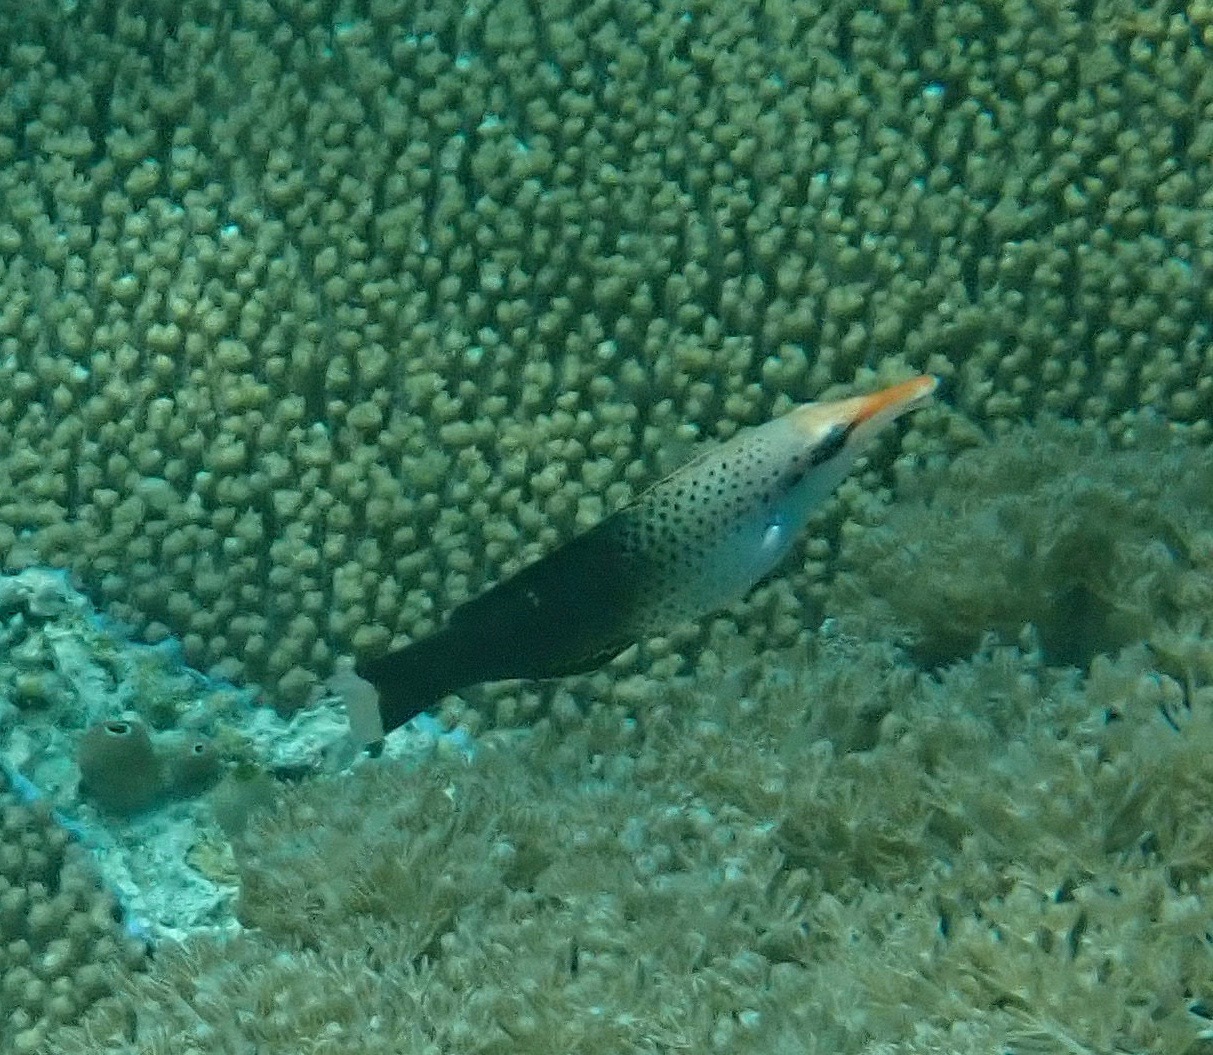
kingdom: Animalia
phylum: Chordata
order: Perciformes
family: Labridae
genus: Gomphosus
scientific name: Gomphosus varius
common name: Bird wrasse
